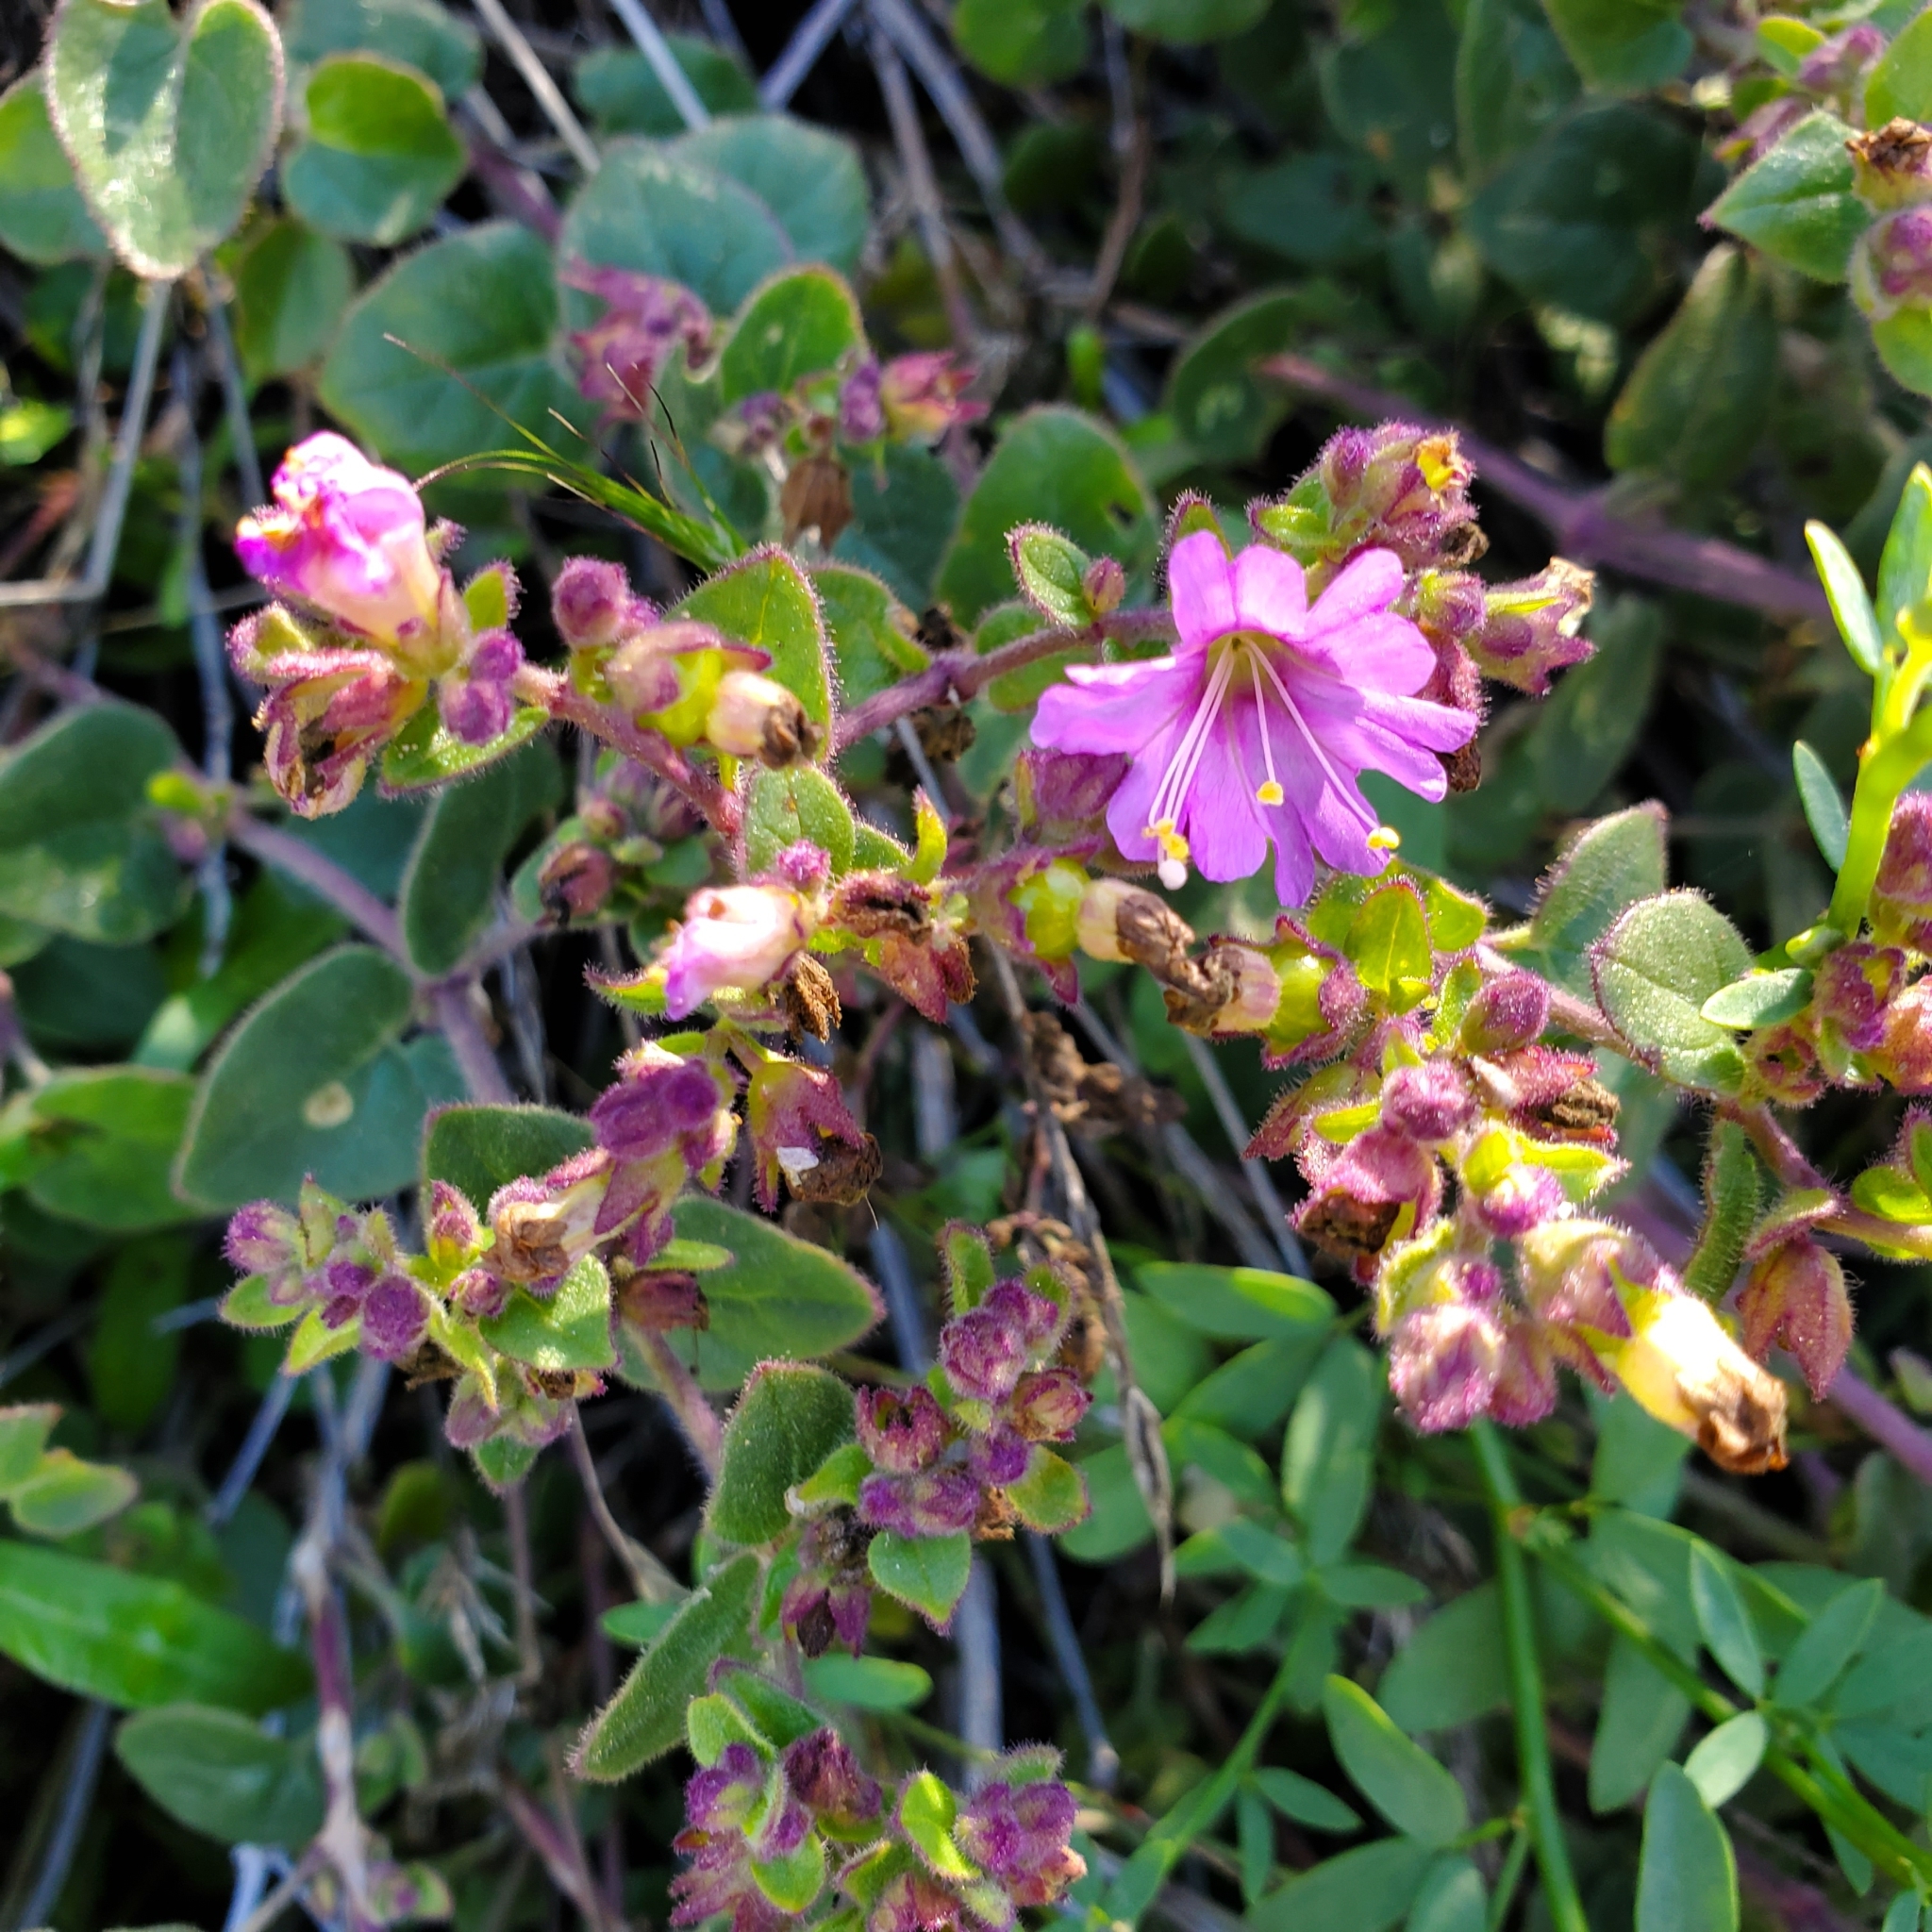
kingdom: Plantae
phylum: Tracheophyta
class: Magnoliopsida
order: Caryophyllales
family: Nyctaginaceae
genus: Mirabilis
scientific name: Mirabilis laevis
